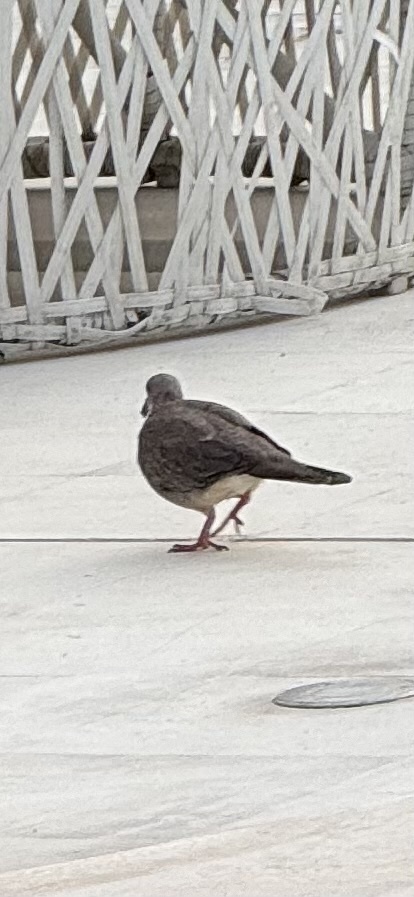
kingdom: Animalia
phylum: Chordata
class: Aves
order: Columbiformes
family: Columbidae
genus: Spilopelia
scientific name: Spilopelia chinensis
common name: Spotted dove
